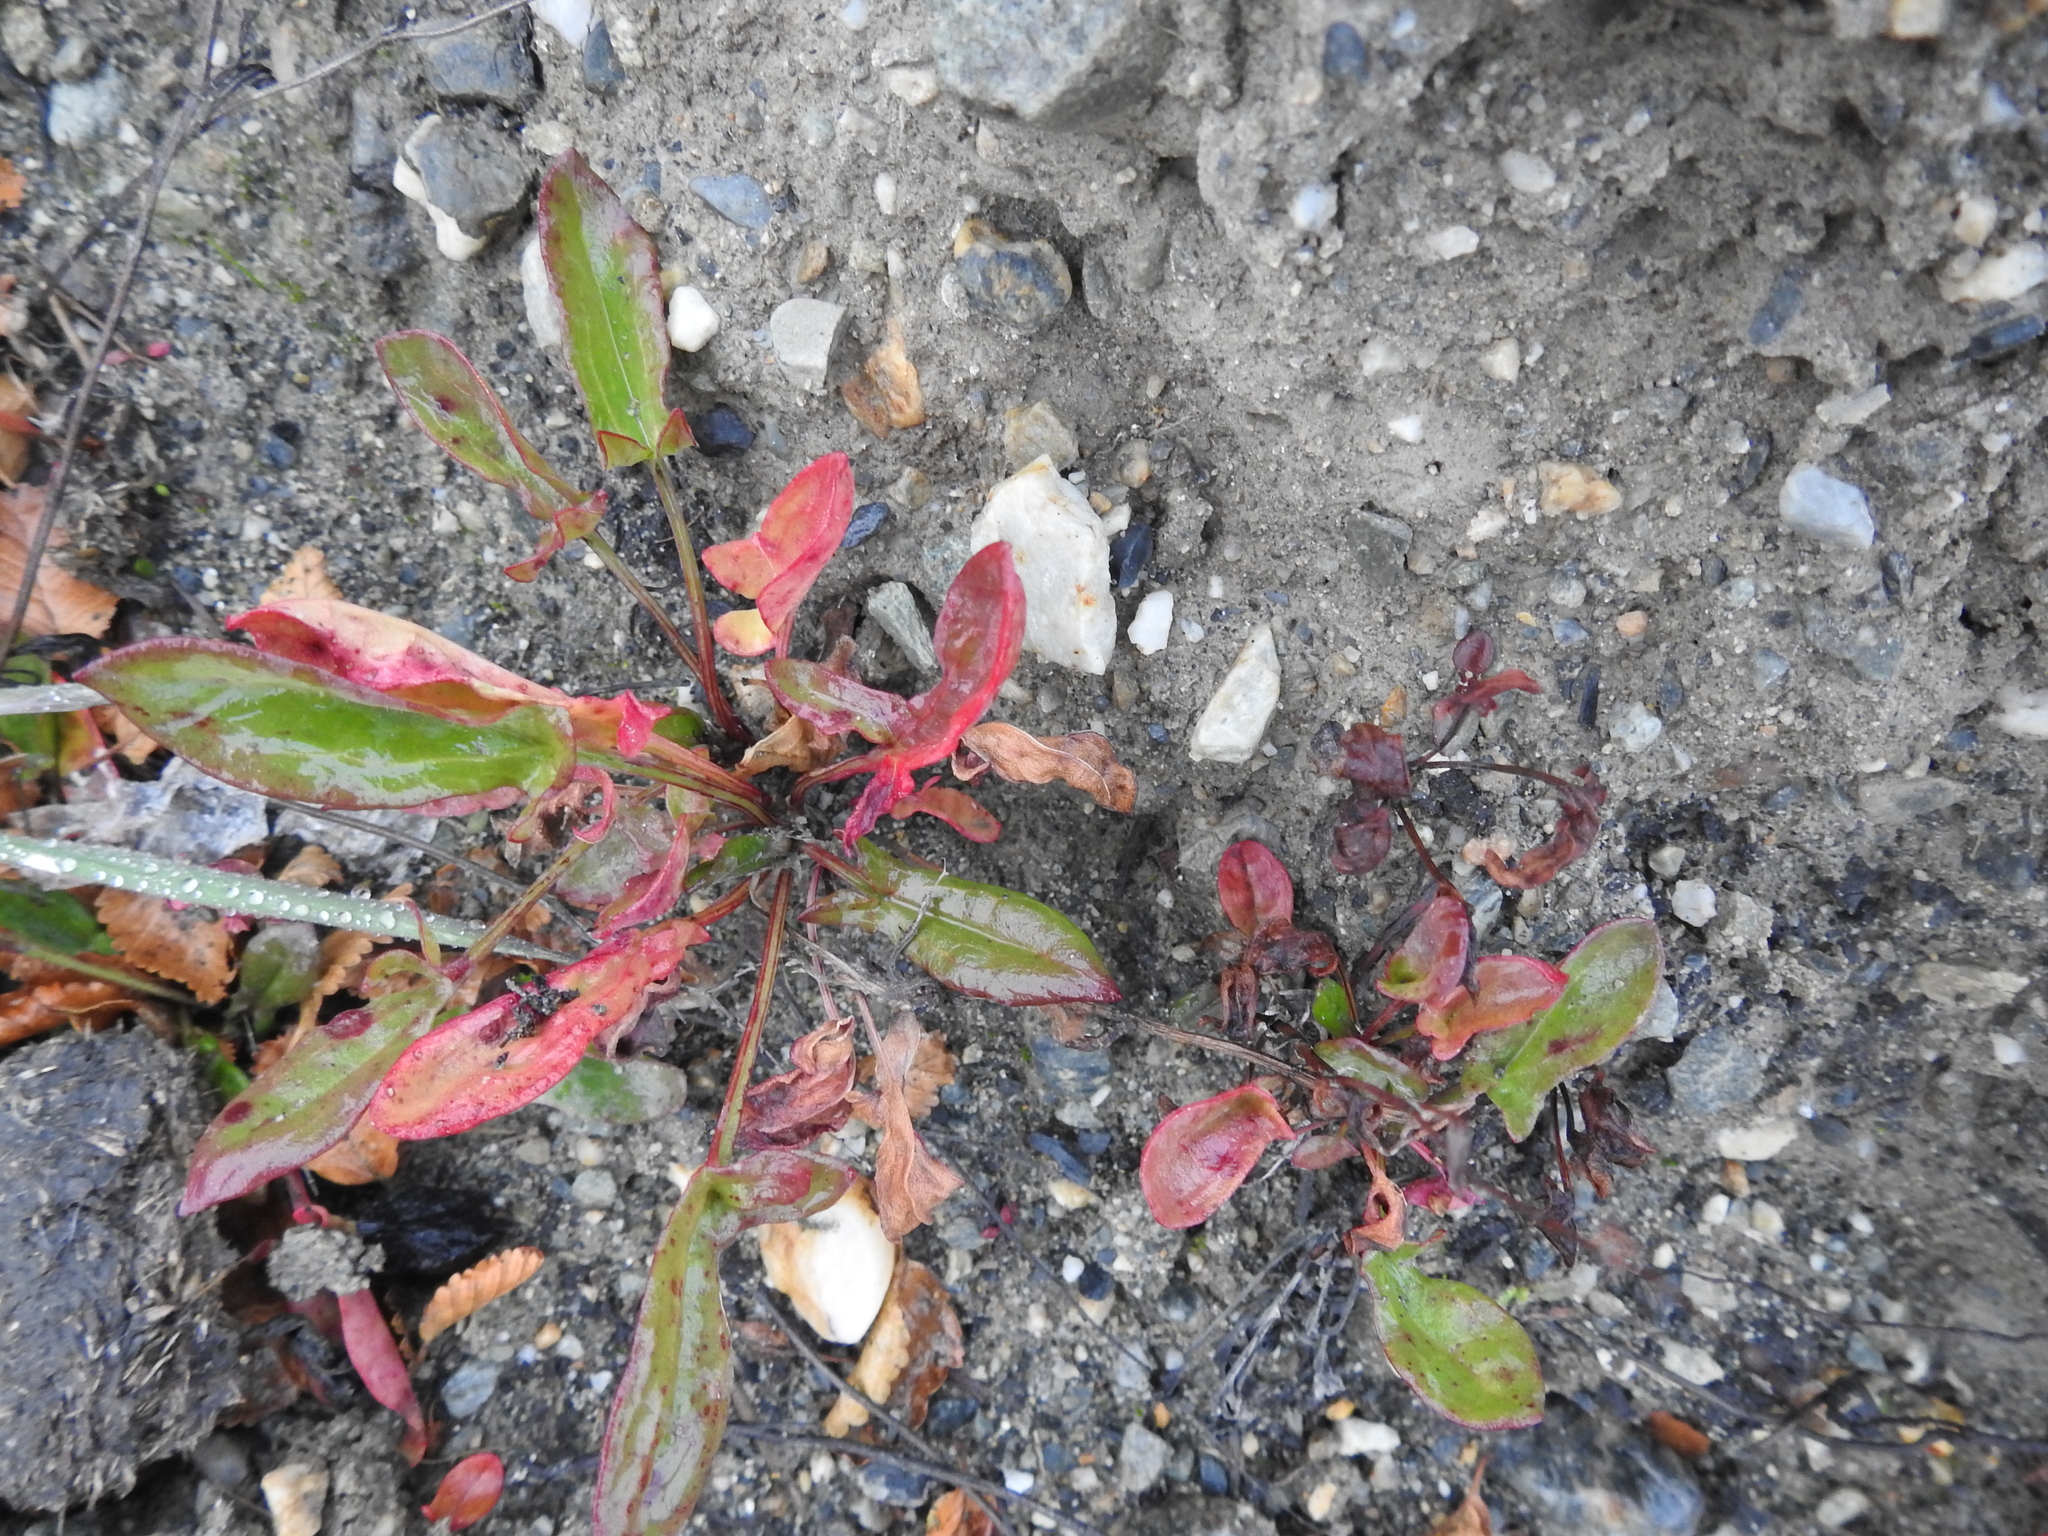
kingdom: Plantae
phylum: Tracheophyta
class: Magnoliopsida
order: Caryophyllales
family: Polygonaceae
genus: Rumex
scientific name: Rumex acetosella
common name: Common sheep sorrel
